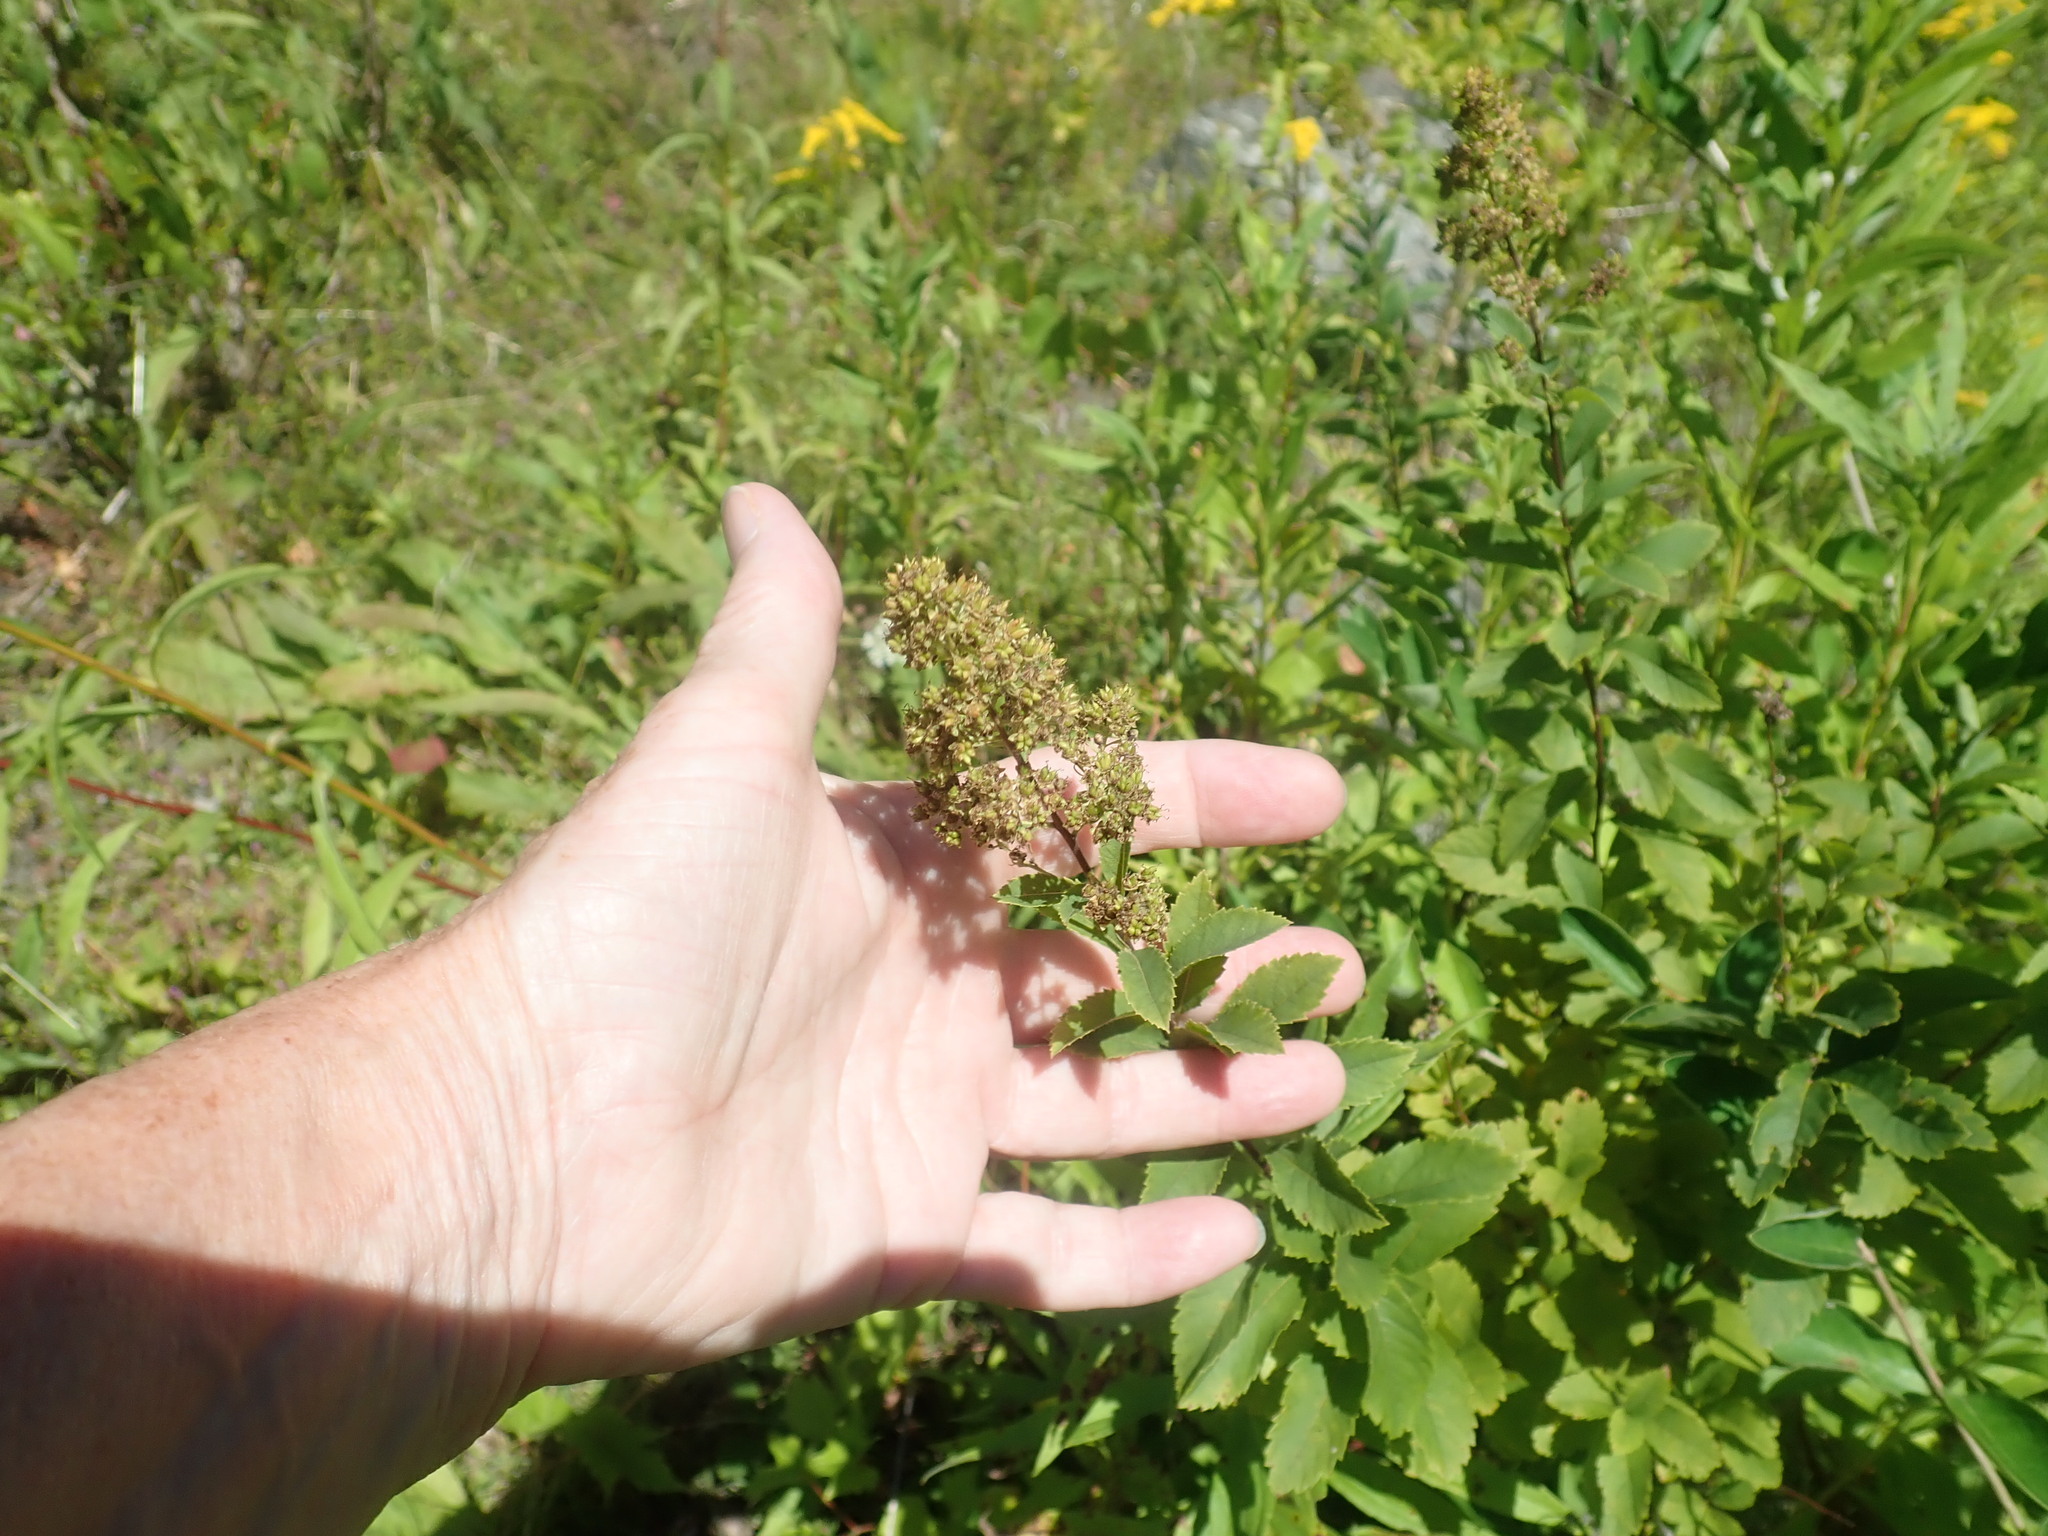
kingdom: Plantae
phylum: Tracheophyta
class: Magnoliopsida
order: Rosales
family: Rosaceae
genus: Spiraea
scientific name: Spiraea alba
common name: Pale bridewort
